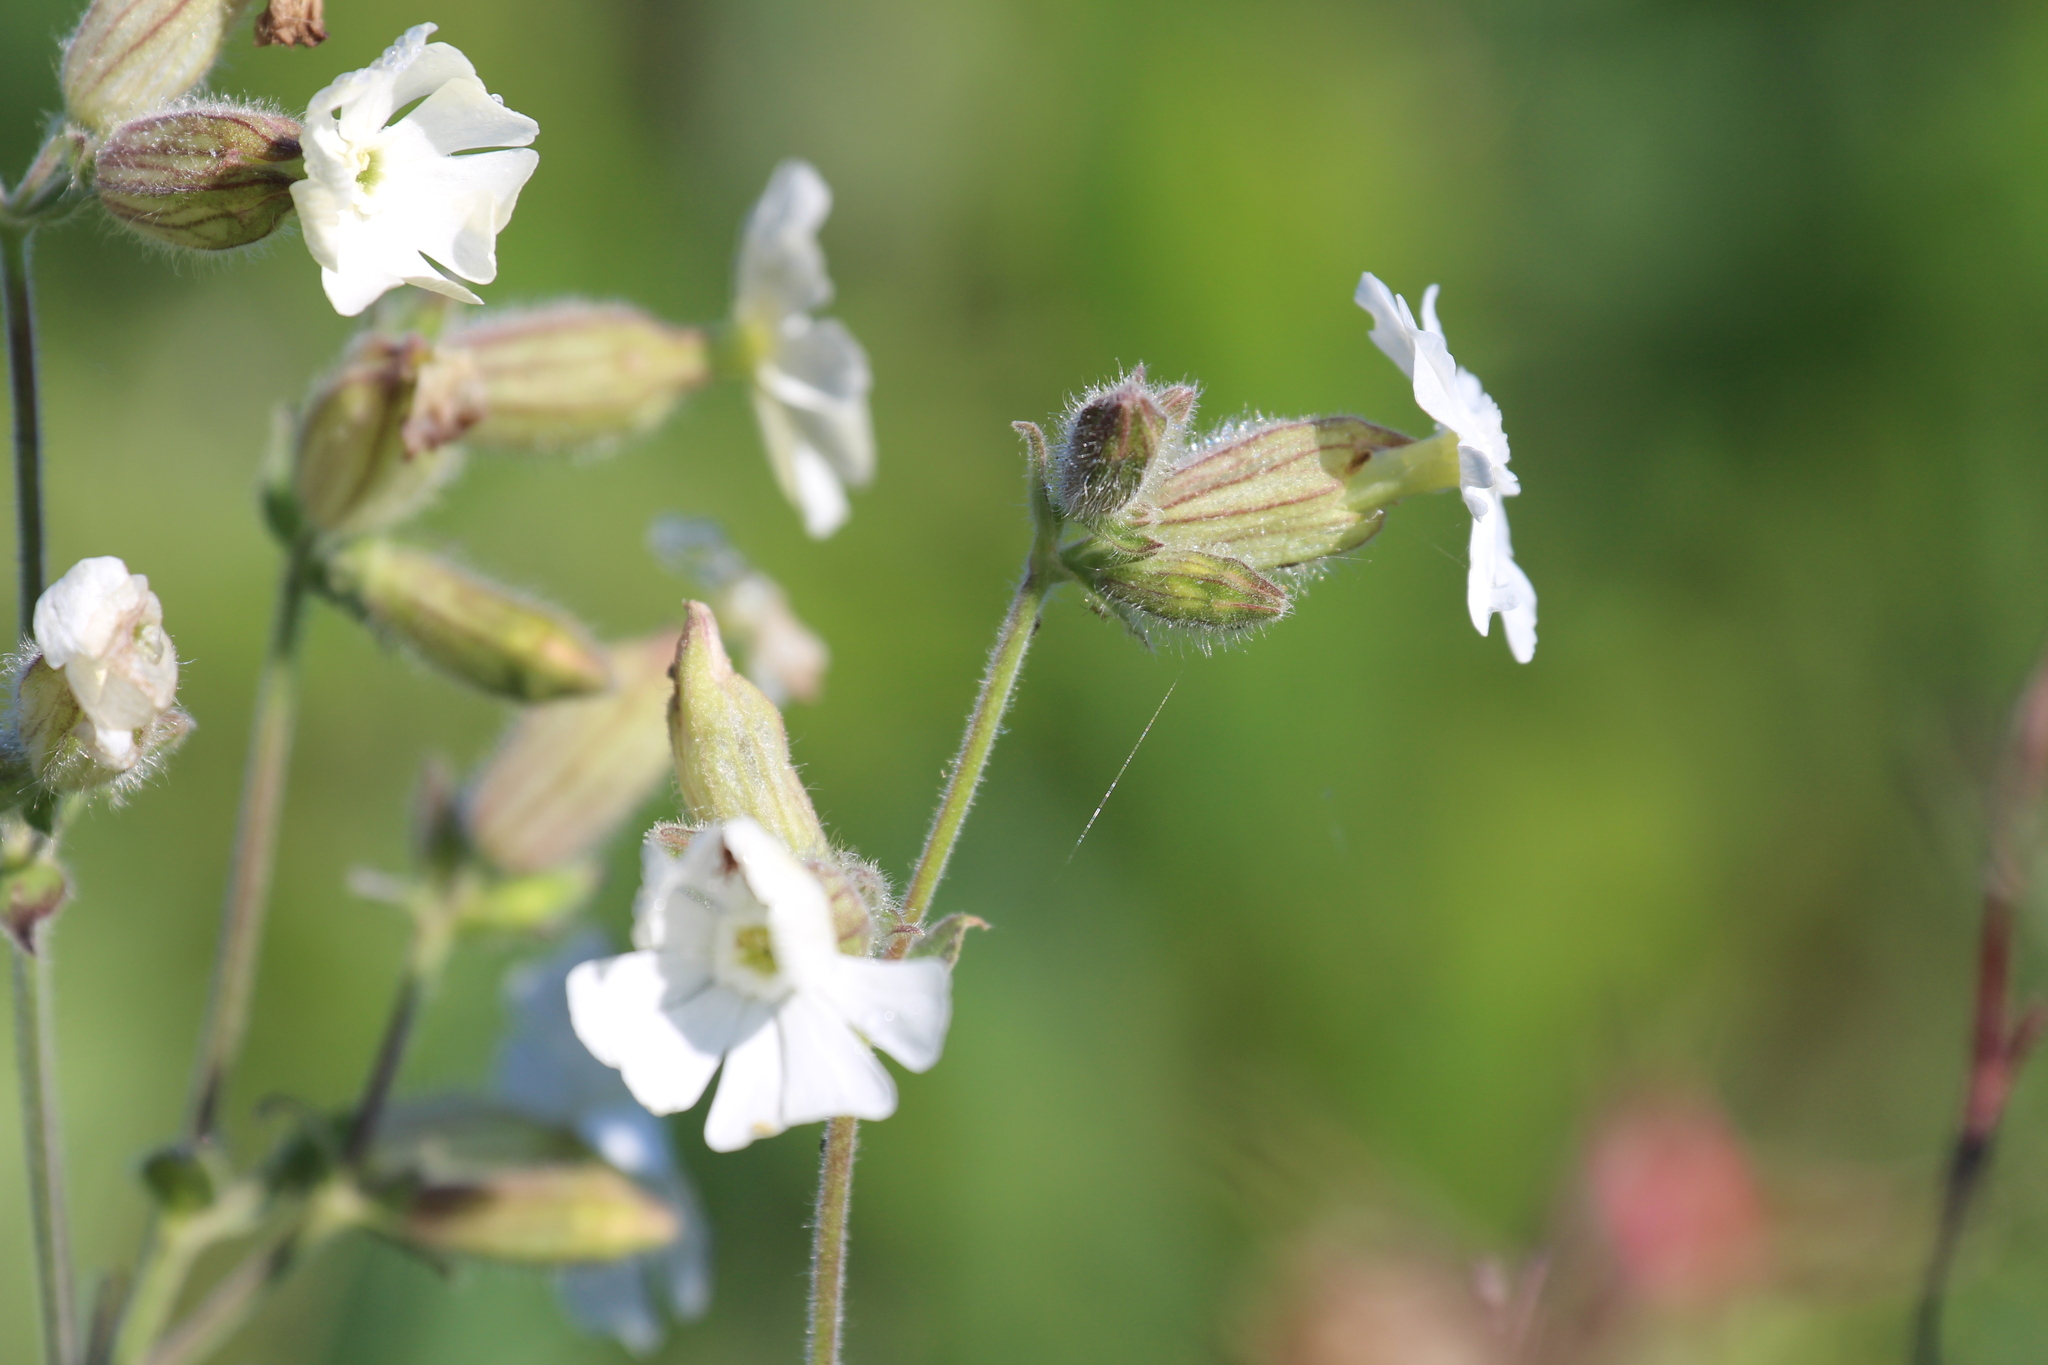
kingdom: Plantae
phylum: Tracheophyta
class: Magnoliopsida
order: Caryophyllales
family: Caryophyllaceae
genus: Silene
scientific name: Silene latifolia
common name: White campion
